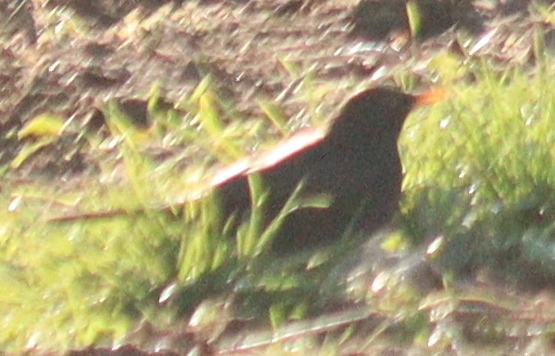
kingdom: Animalia
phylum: Chordata
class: Aves
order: Passeriformes
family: Turdidae
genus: Turdus
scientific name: Turdus merula
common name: Common blackbird
